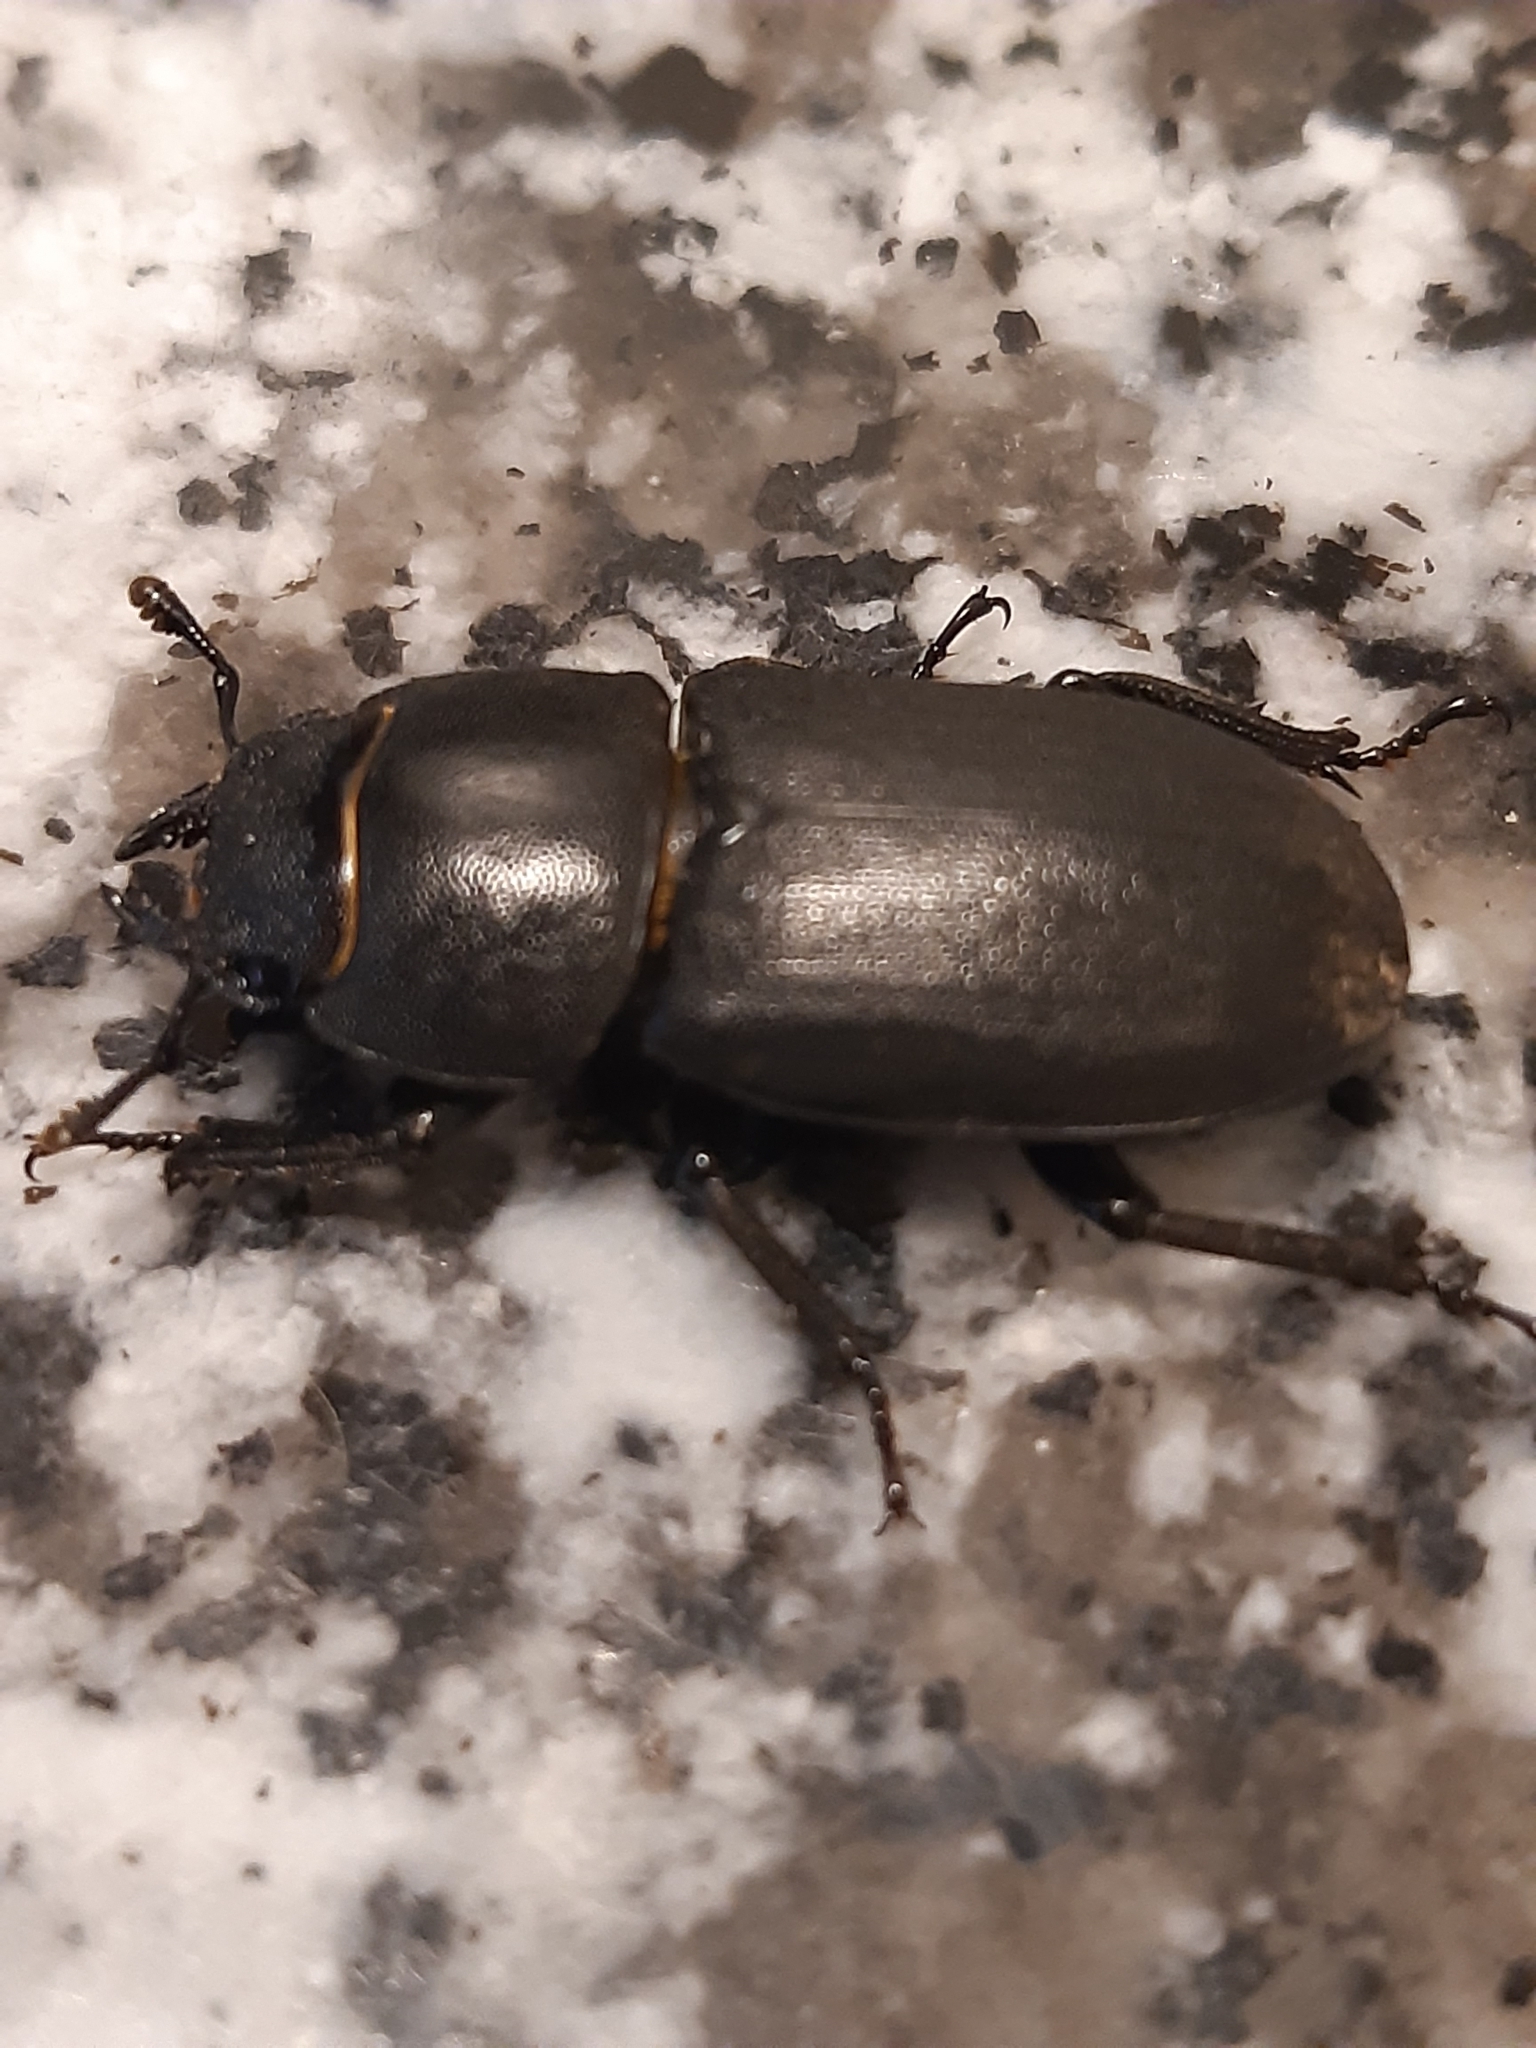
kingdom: Animalia
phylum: Arthropoda
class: Insecta
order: Coleoptera
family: Lucanidae
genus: Dorcus
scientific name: Dorcus parallelipipedus
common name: Lesser stag beetle
